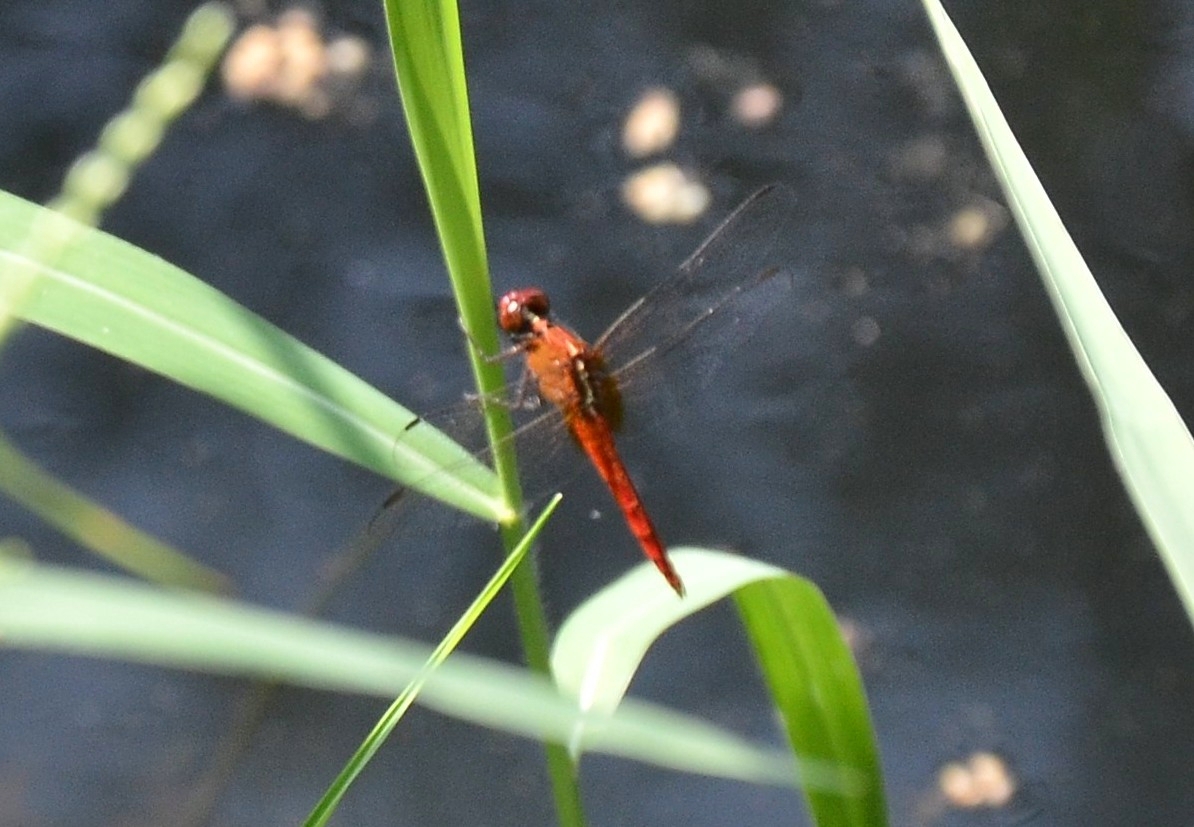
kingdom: Animalia
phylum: Arthropoda
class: Insecta
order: Odonata
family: Libellulidae
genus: Rhodothemis
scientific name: Rhodothemis rufa
